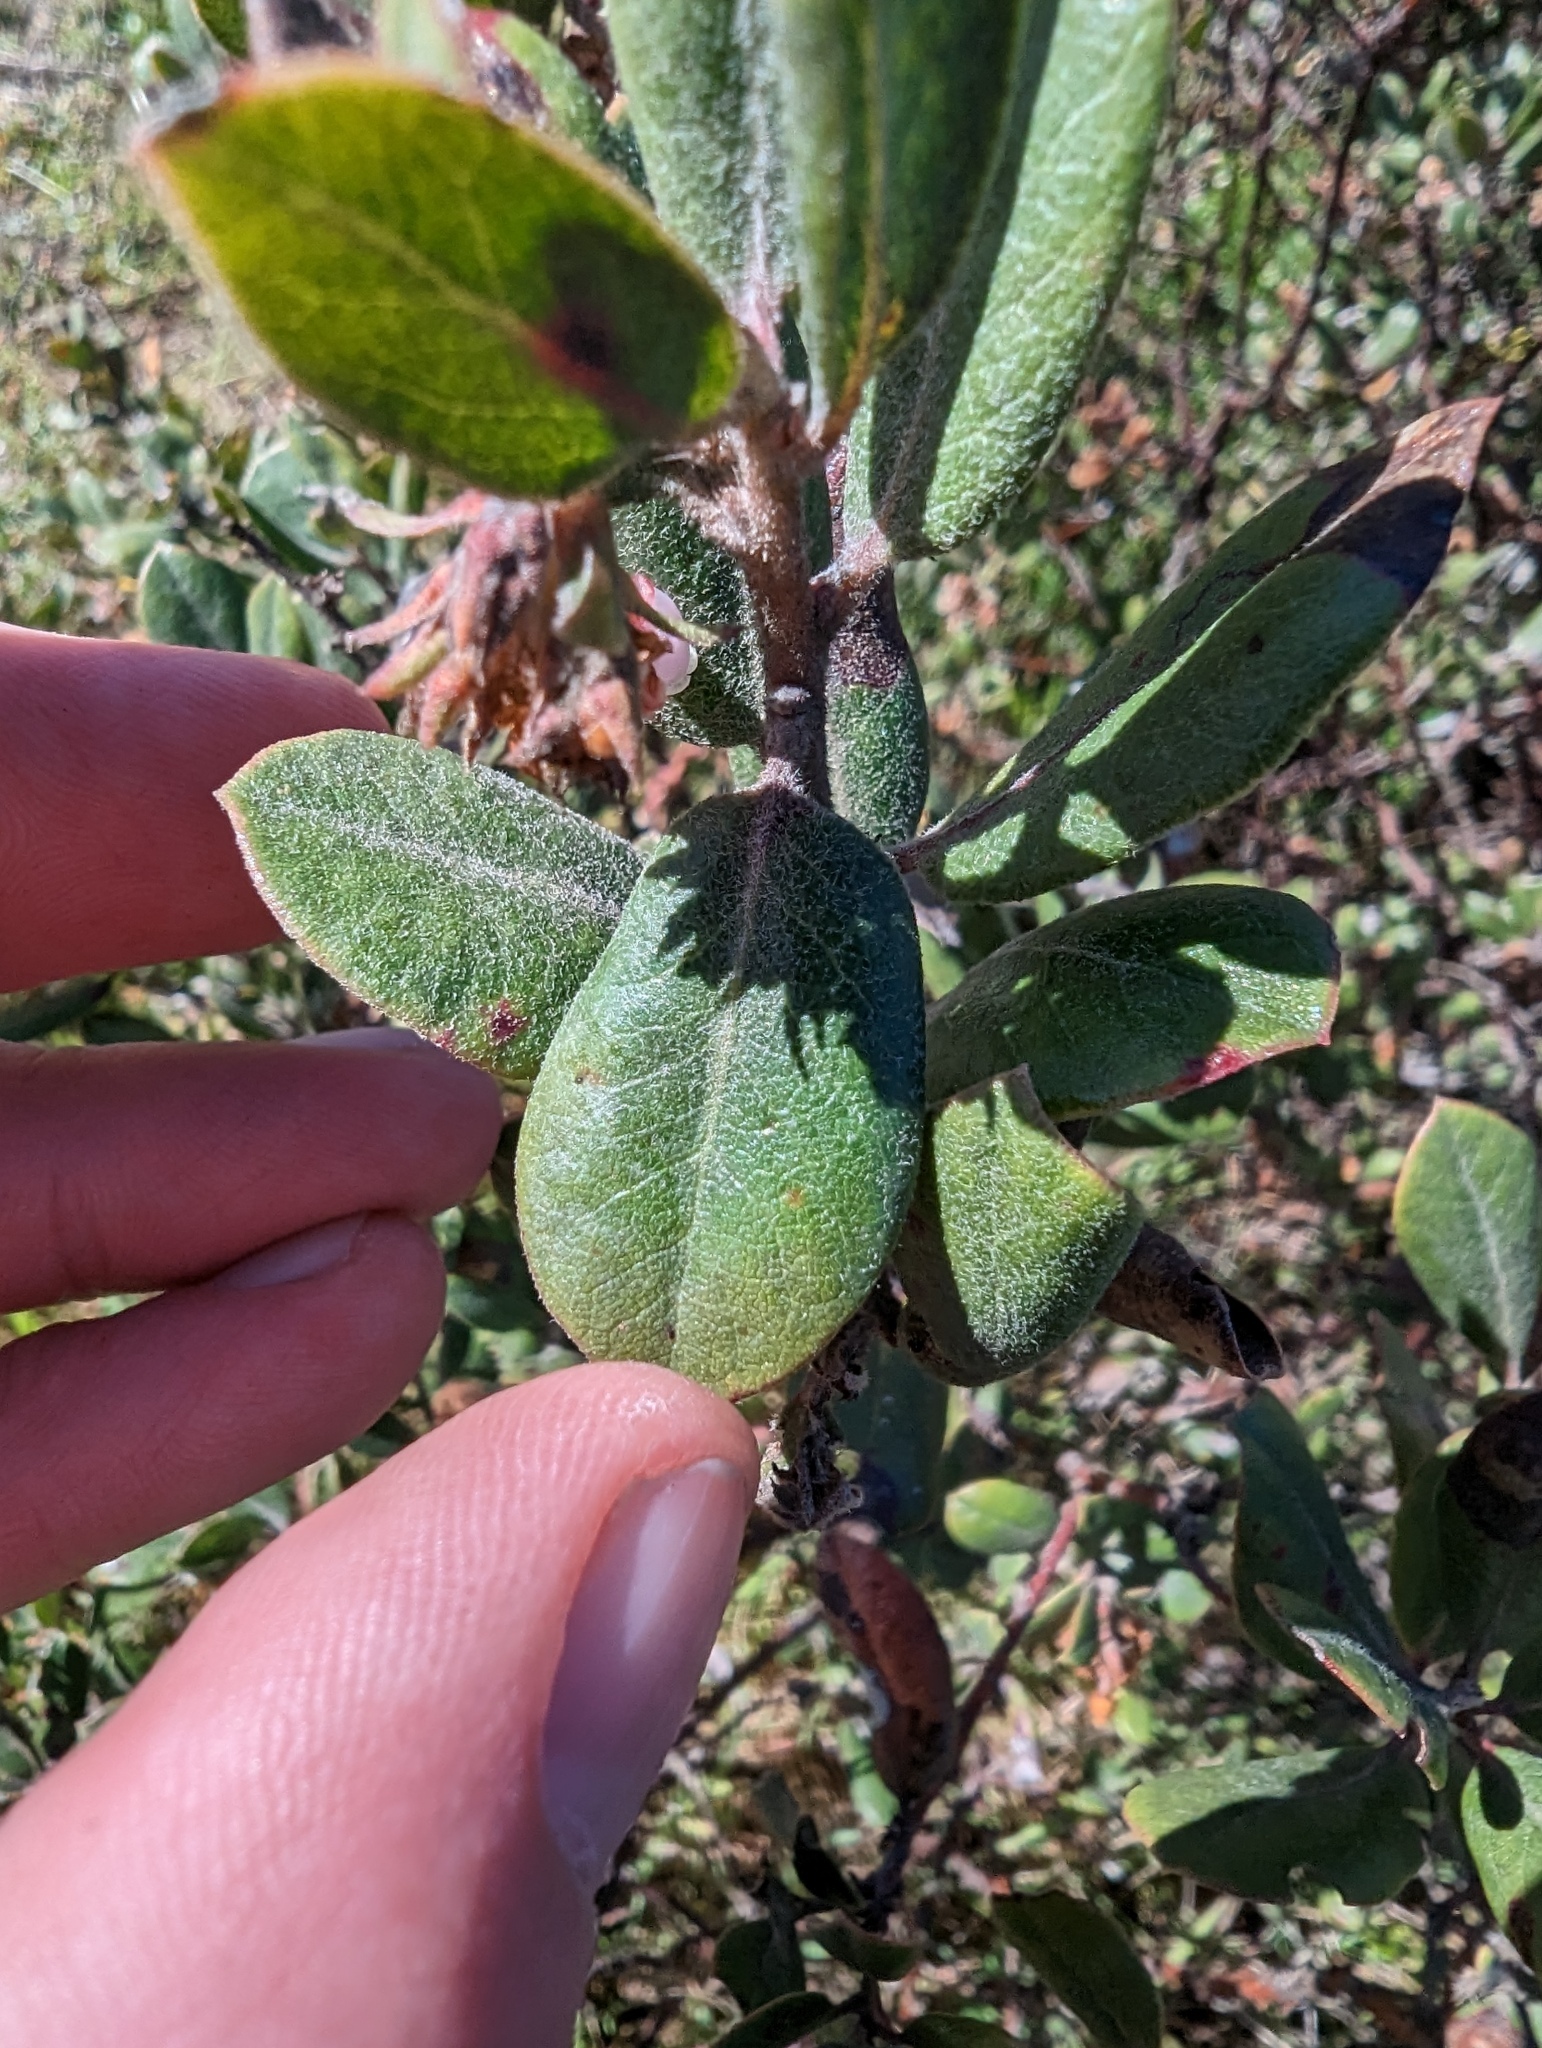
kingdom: Plantae
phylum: Tracheophyta
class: Magnoliopsida
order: Ericales
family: Ericaceae
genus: Arctostaphylos
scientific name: Arctostaphylos tomentosa
